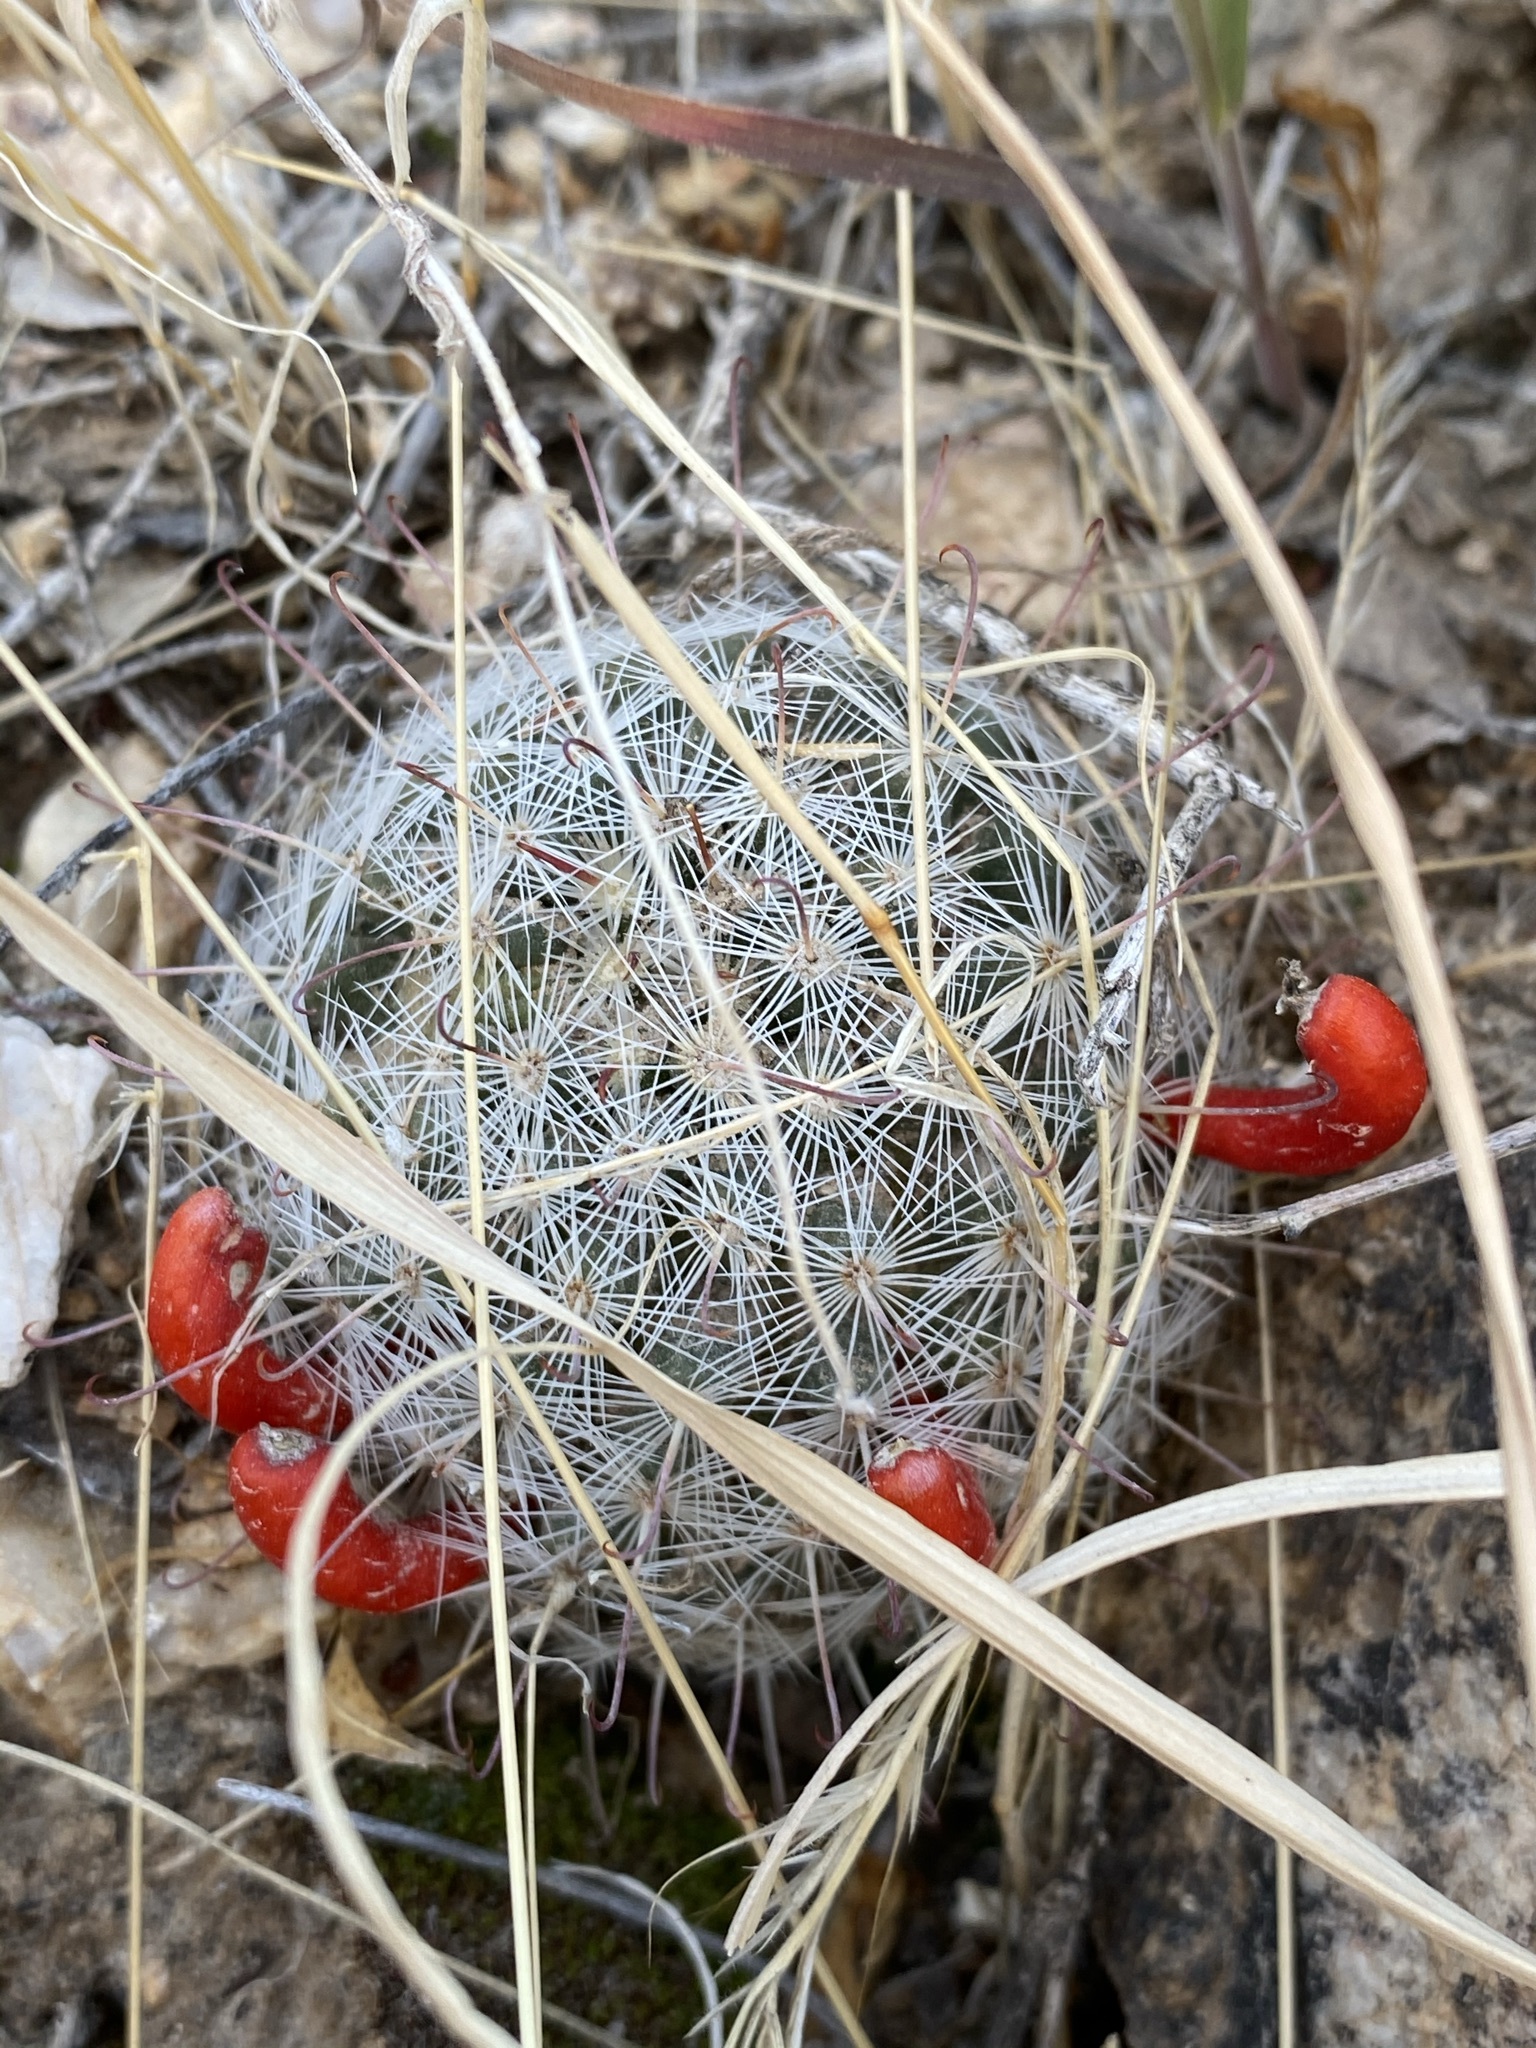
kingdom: Plantae
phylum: Tracheophyta
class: Magnoliopsida
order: Caryophyllales
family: Cactaceae
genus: Cochemiea
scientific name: Cochemiea grahamii
